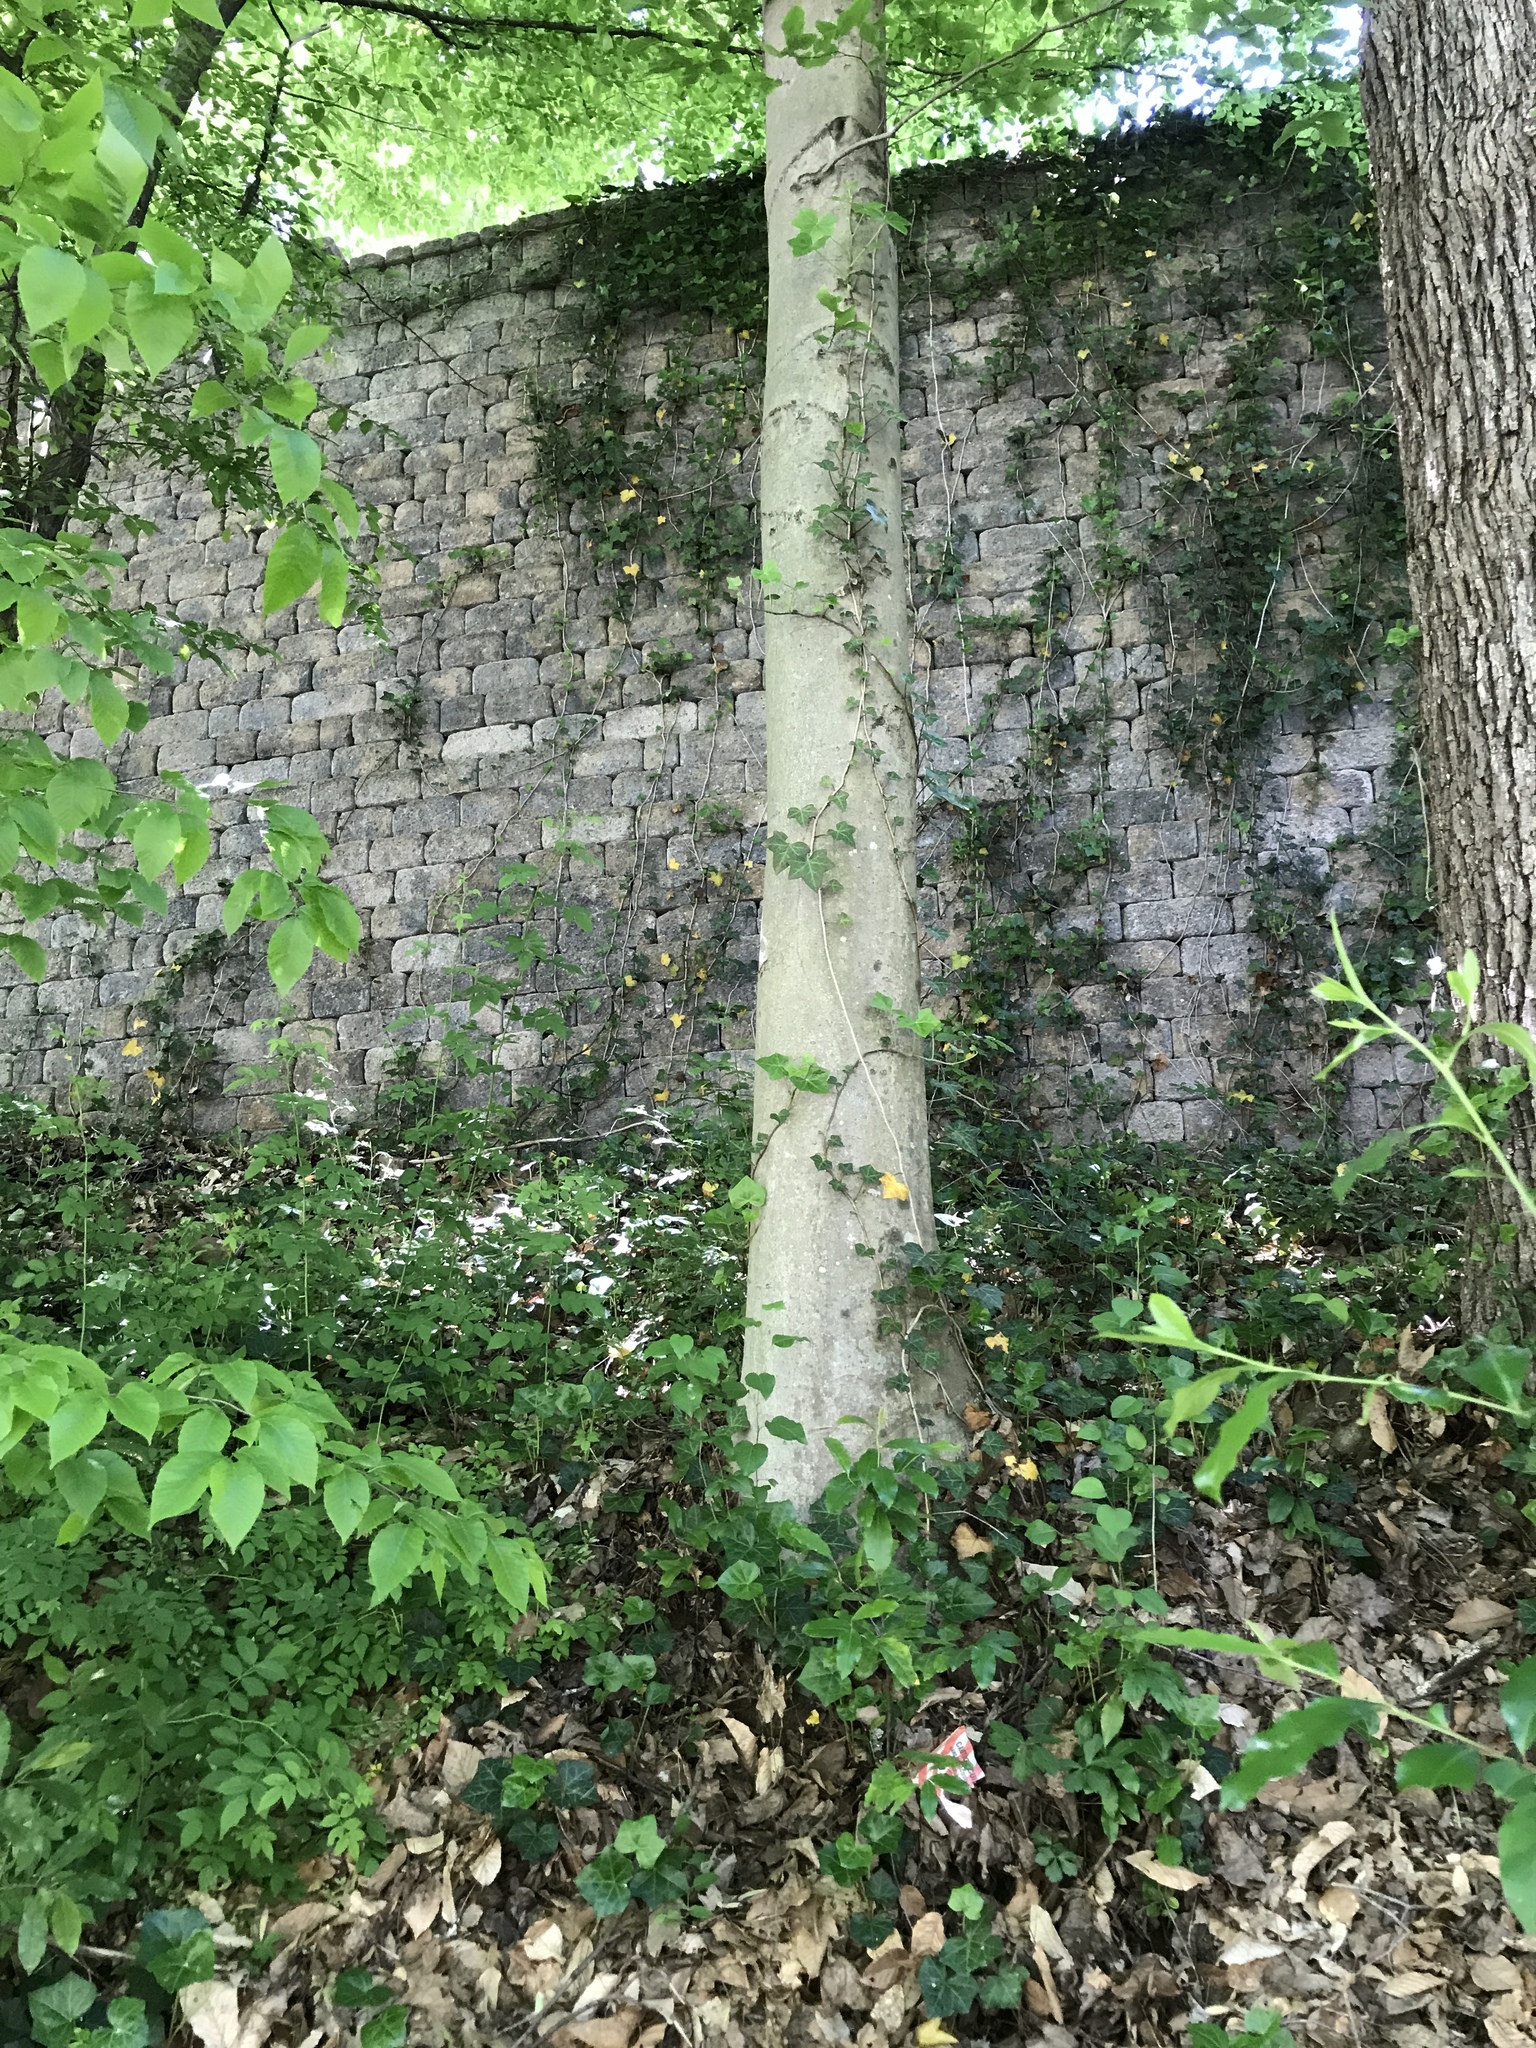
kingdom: Plantae
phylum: Tracheophyta
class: Magnoliopsida
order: Fagales
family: Fagaceae
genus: Fagus
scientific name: Fagus grandifolia
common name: American beech
